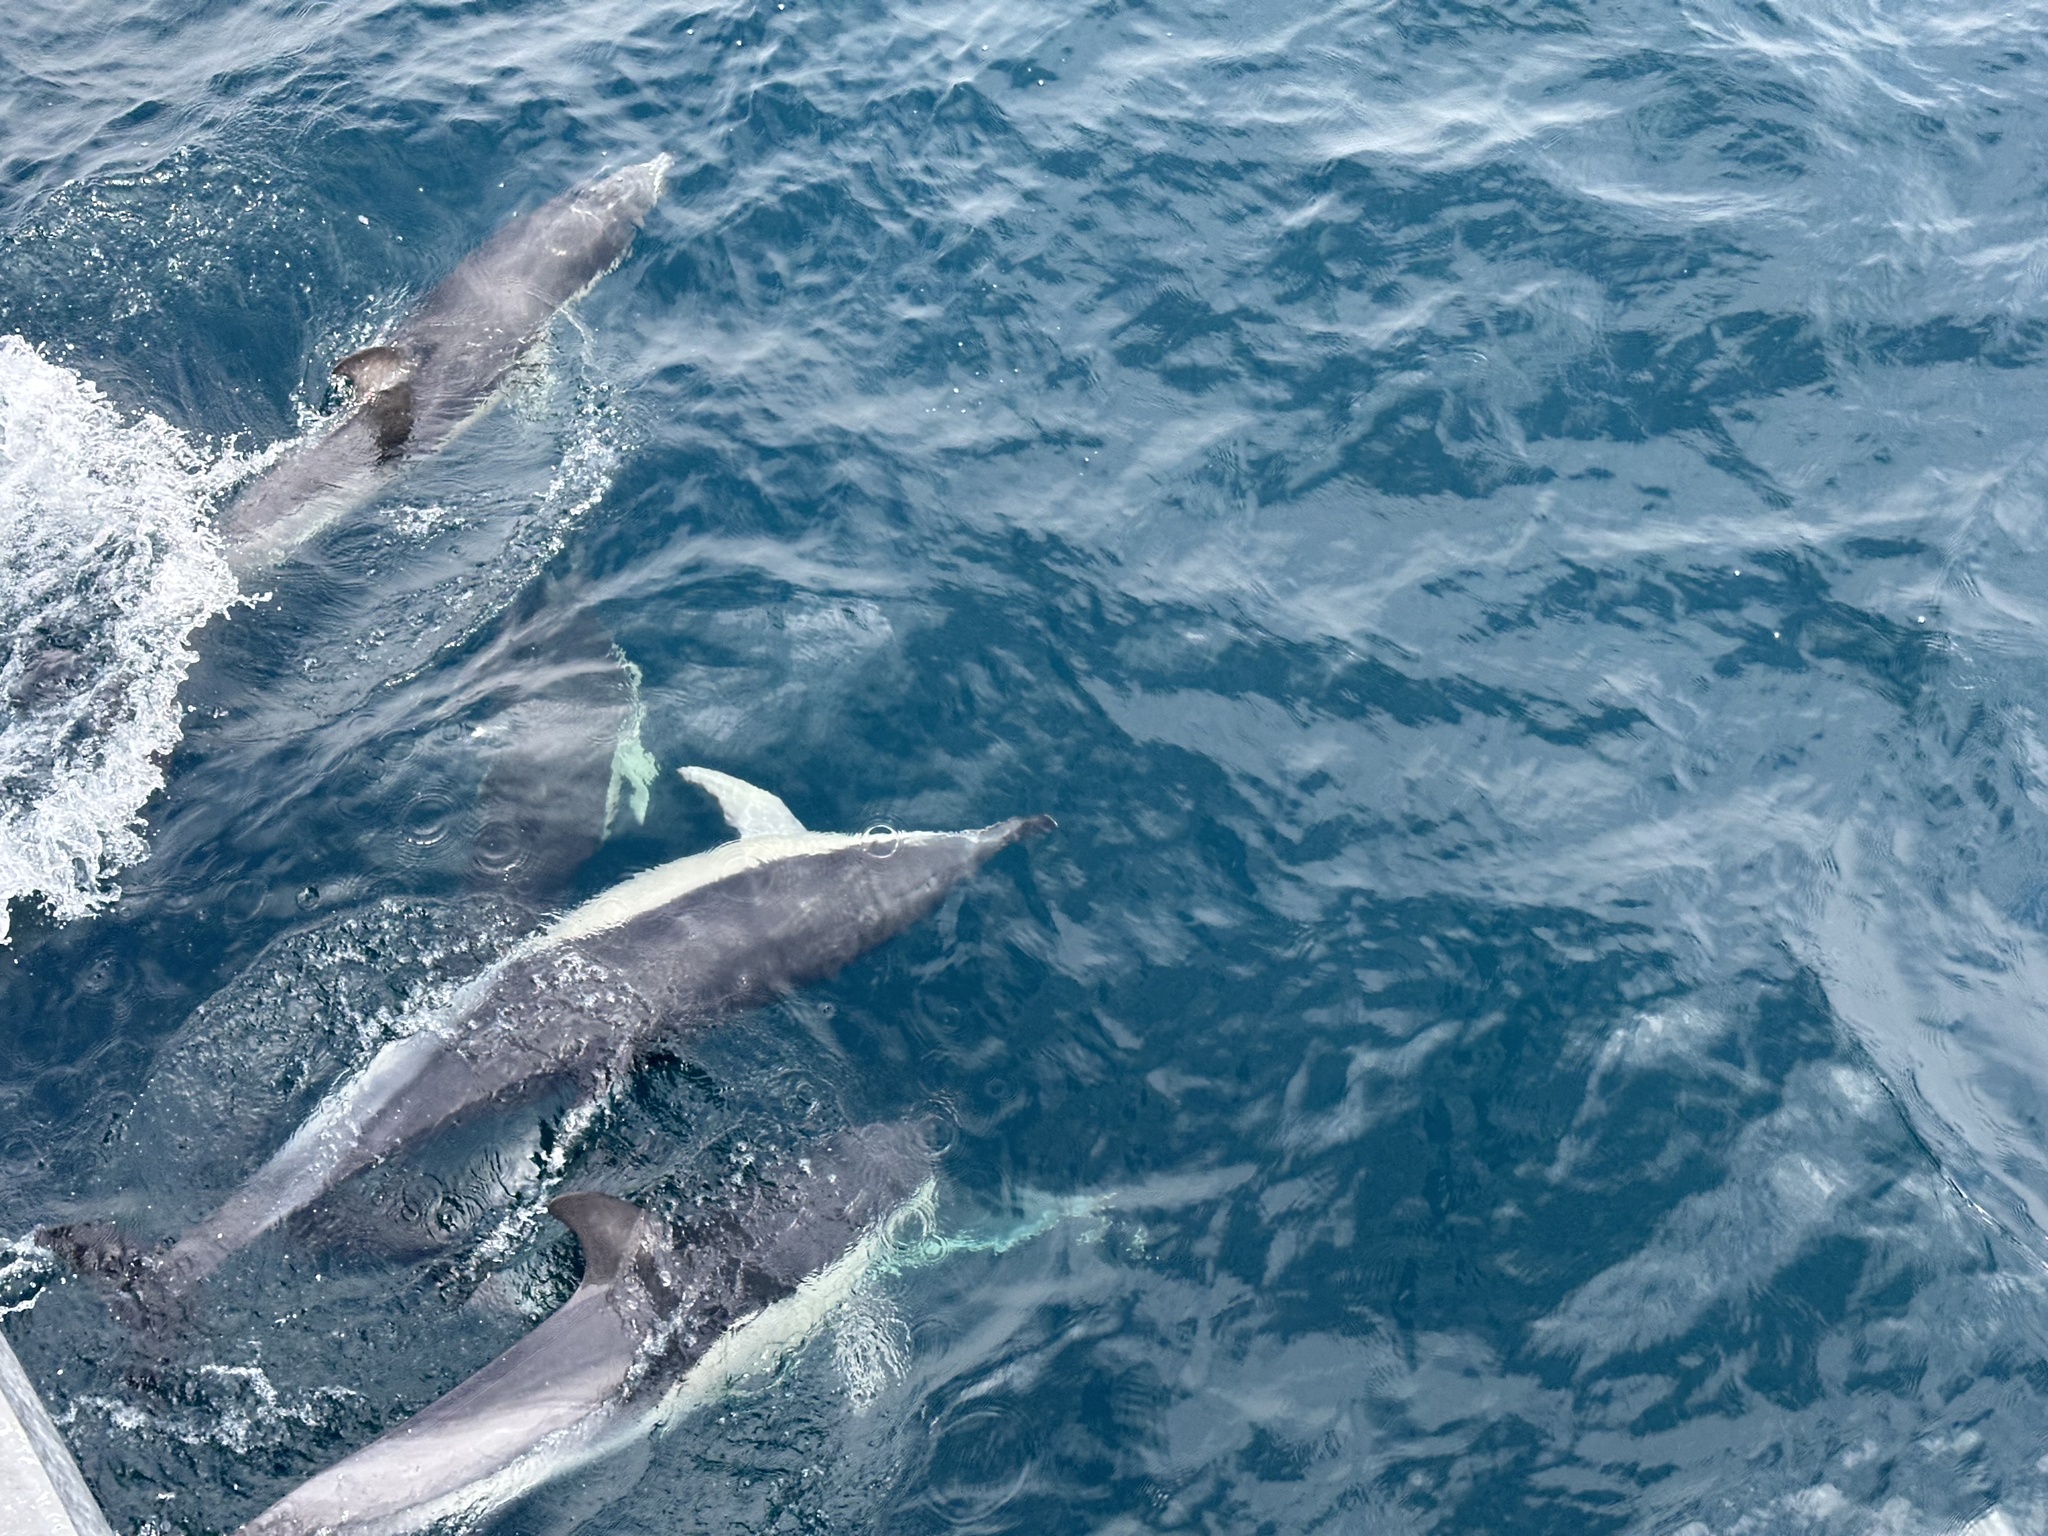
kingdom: Animalia
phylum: Chordata
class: Mammalia
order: Cetacea
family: Delphinidae
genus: Delphinus
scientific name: Delphinus delphis
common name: Common dolphin
